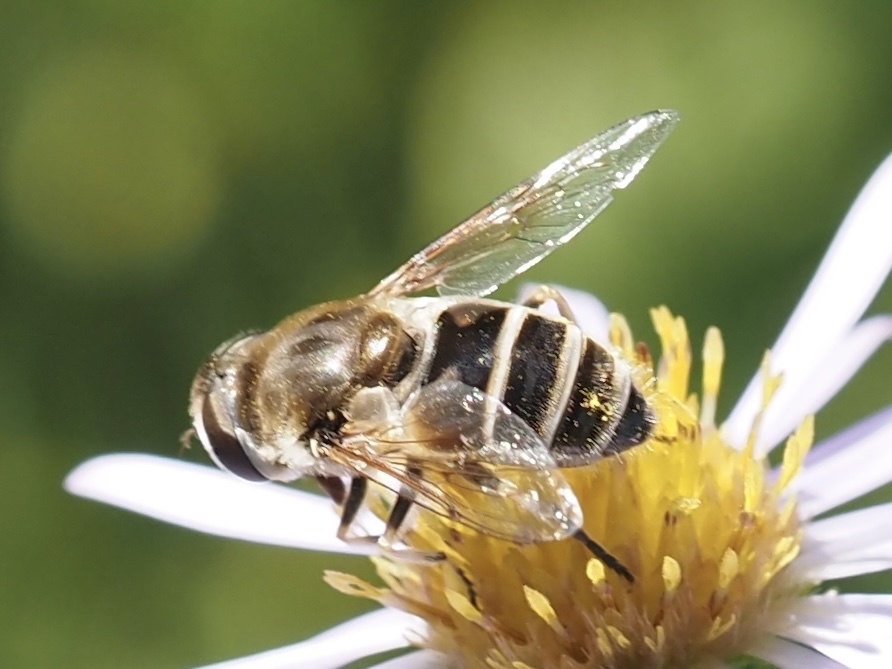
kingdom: Animalia
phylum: Arthropoda
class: Insecta
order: Diptera
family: Syrphidae
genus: Eristalis
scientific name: Eristalis arbustorum
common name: Hover fly
